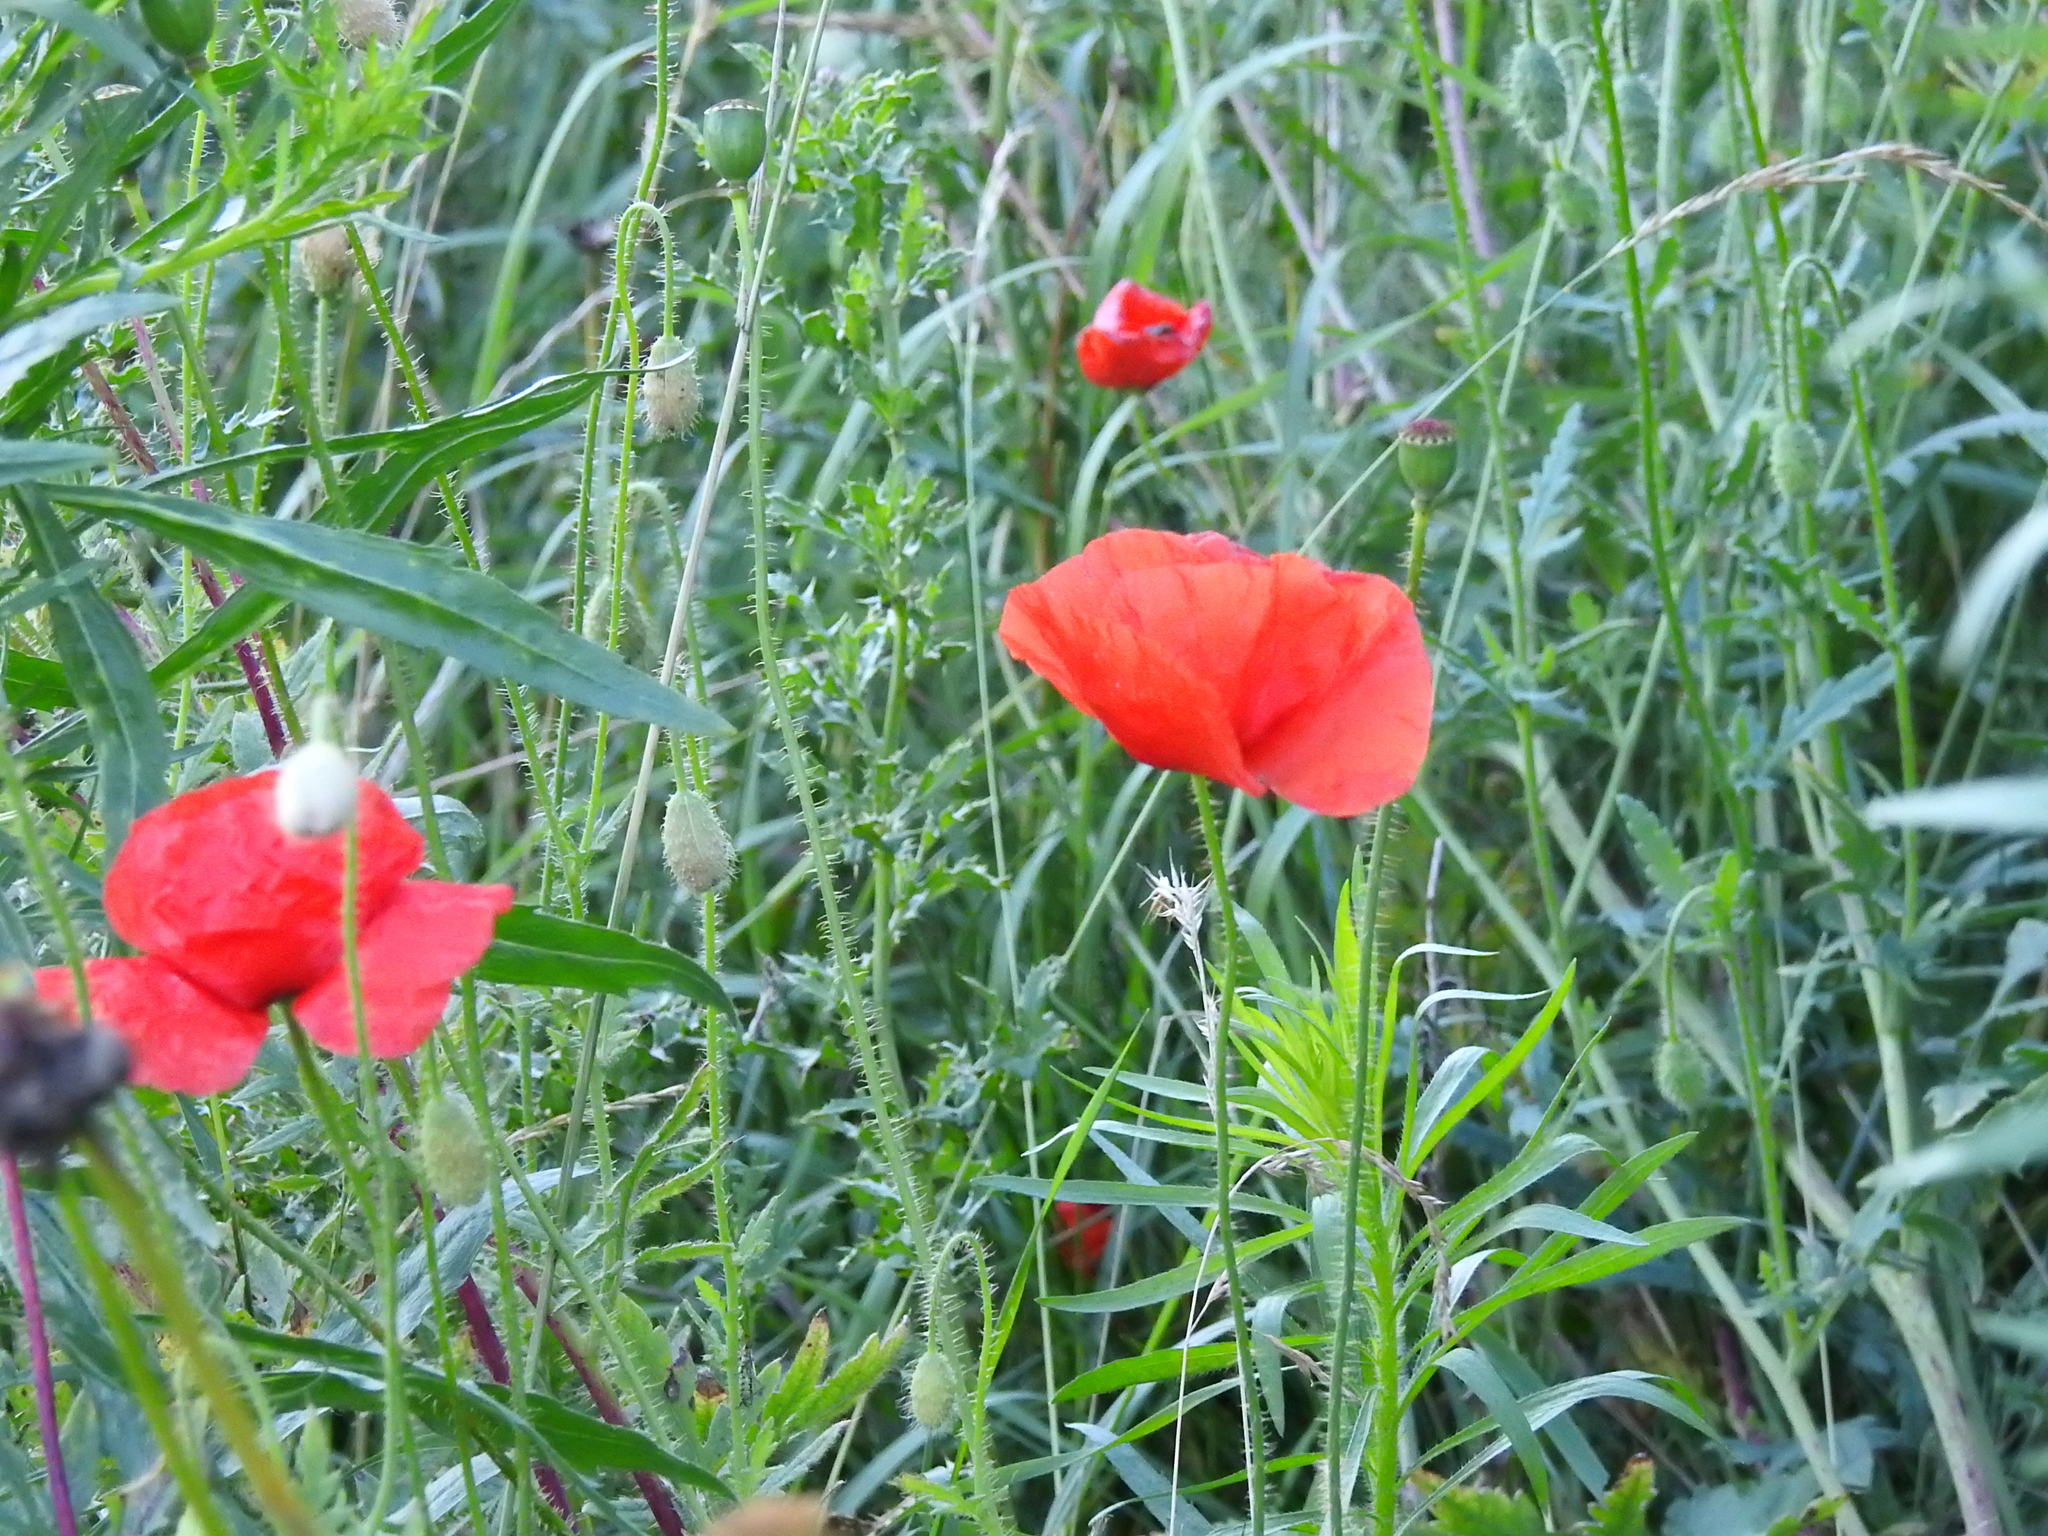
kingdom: Plantae
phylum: Tracheophyta
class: Magnoliopsida
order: Ranunculales
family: Papaveraceae
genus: Papaver
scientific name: Papaver rhoeas
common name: Corn poppy
